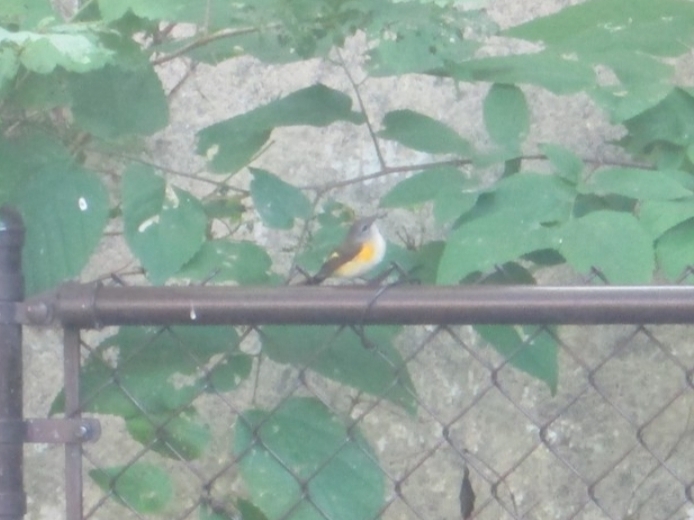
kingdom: Animalia
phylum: Chordata
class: Aves
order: Passeriformes
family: Parulidae
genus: Setophaga
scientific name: Setophaga ruticilla
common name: American redstart
